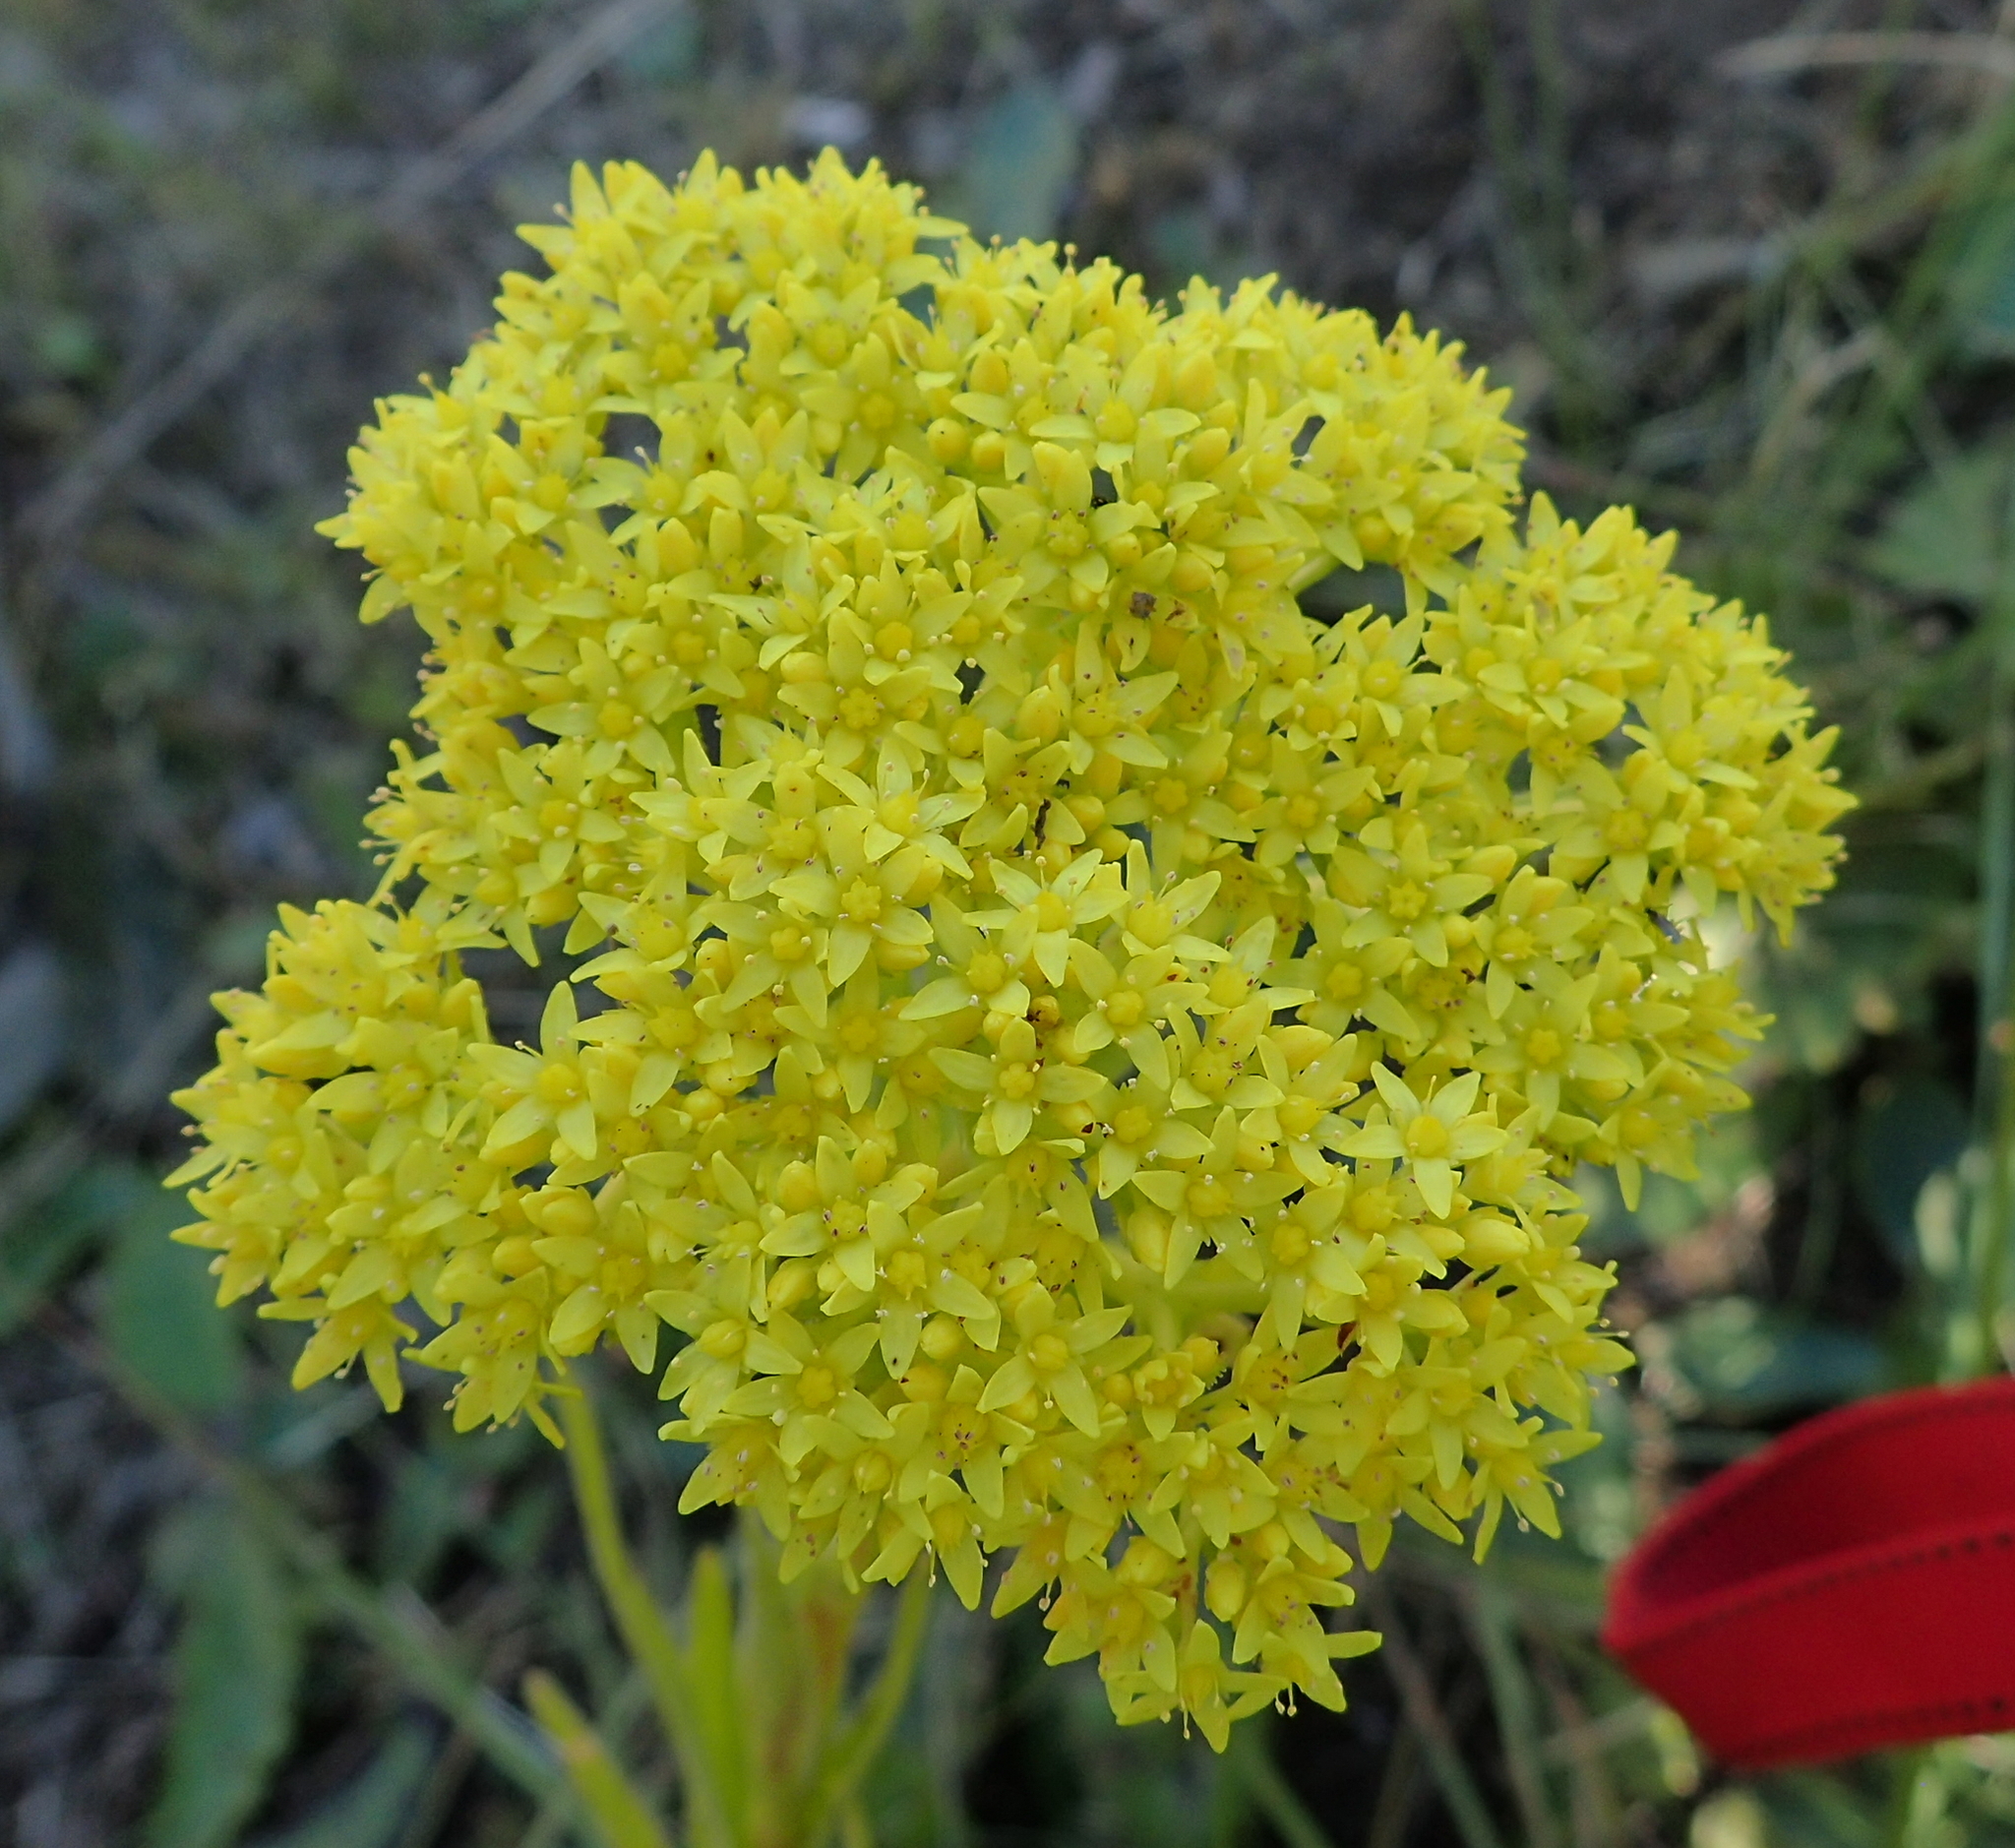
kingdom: Plantae
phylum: Tracheophyta
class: Magnoliopsida
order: Saxifragales
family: Crassulaceae
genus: Crassula
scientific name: Crassula vaginata
